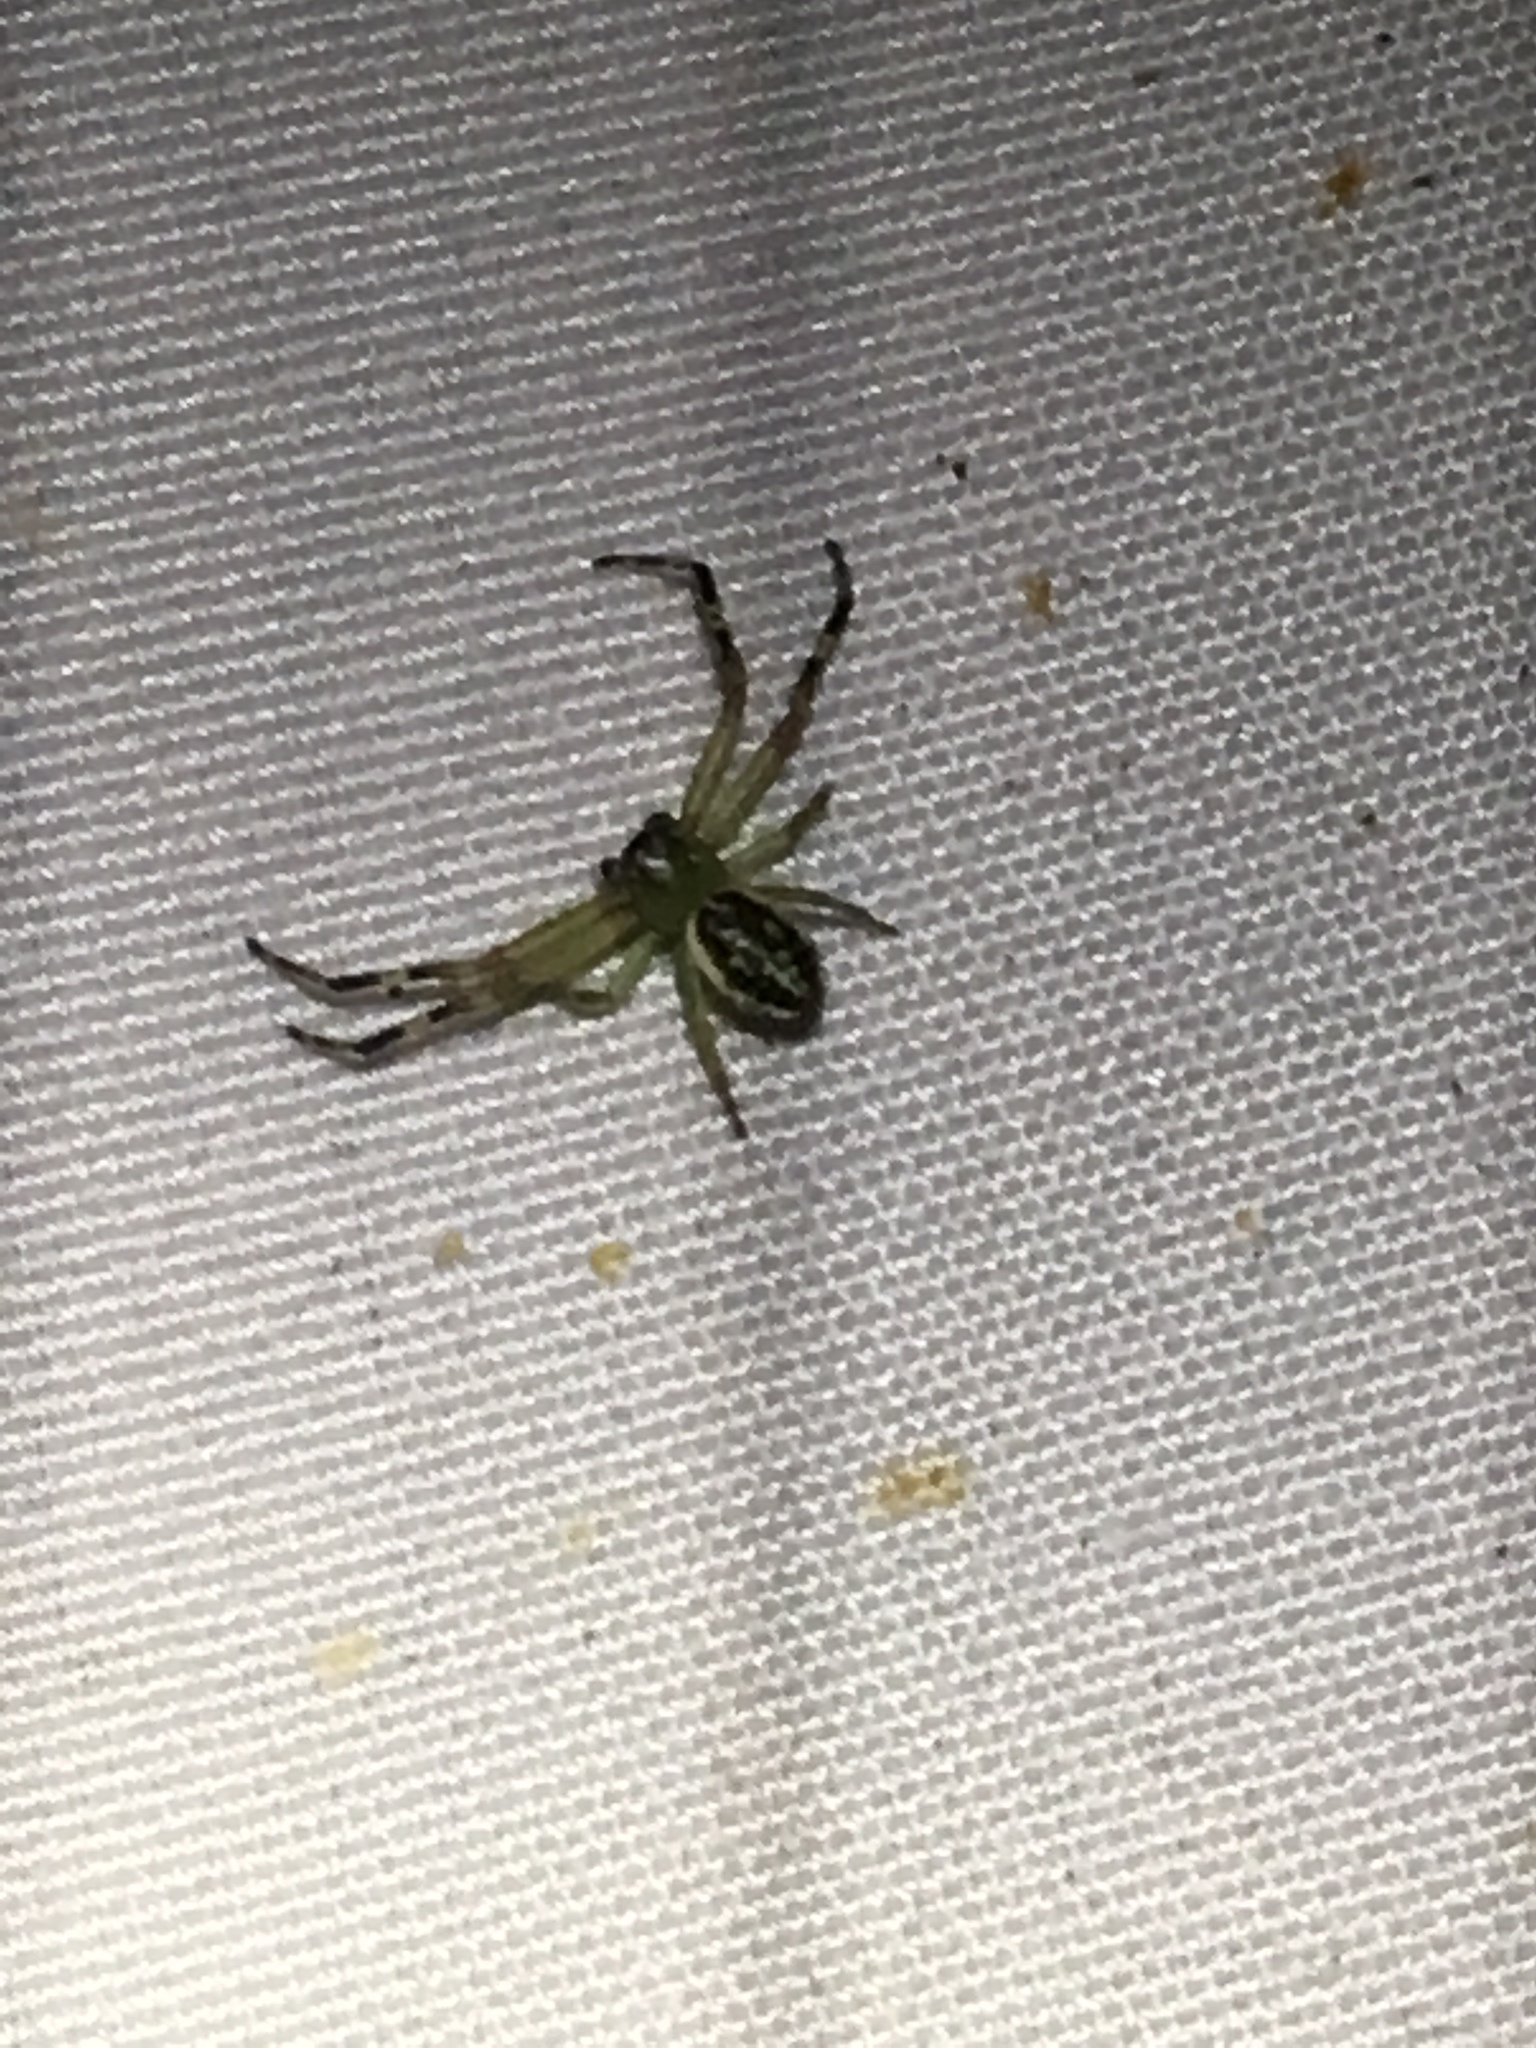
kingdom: Animalia
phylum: Arthropoda
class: Arachnida
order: Araneae
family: Thomisidae
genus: Diaea
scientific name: Diaea ambara
